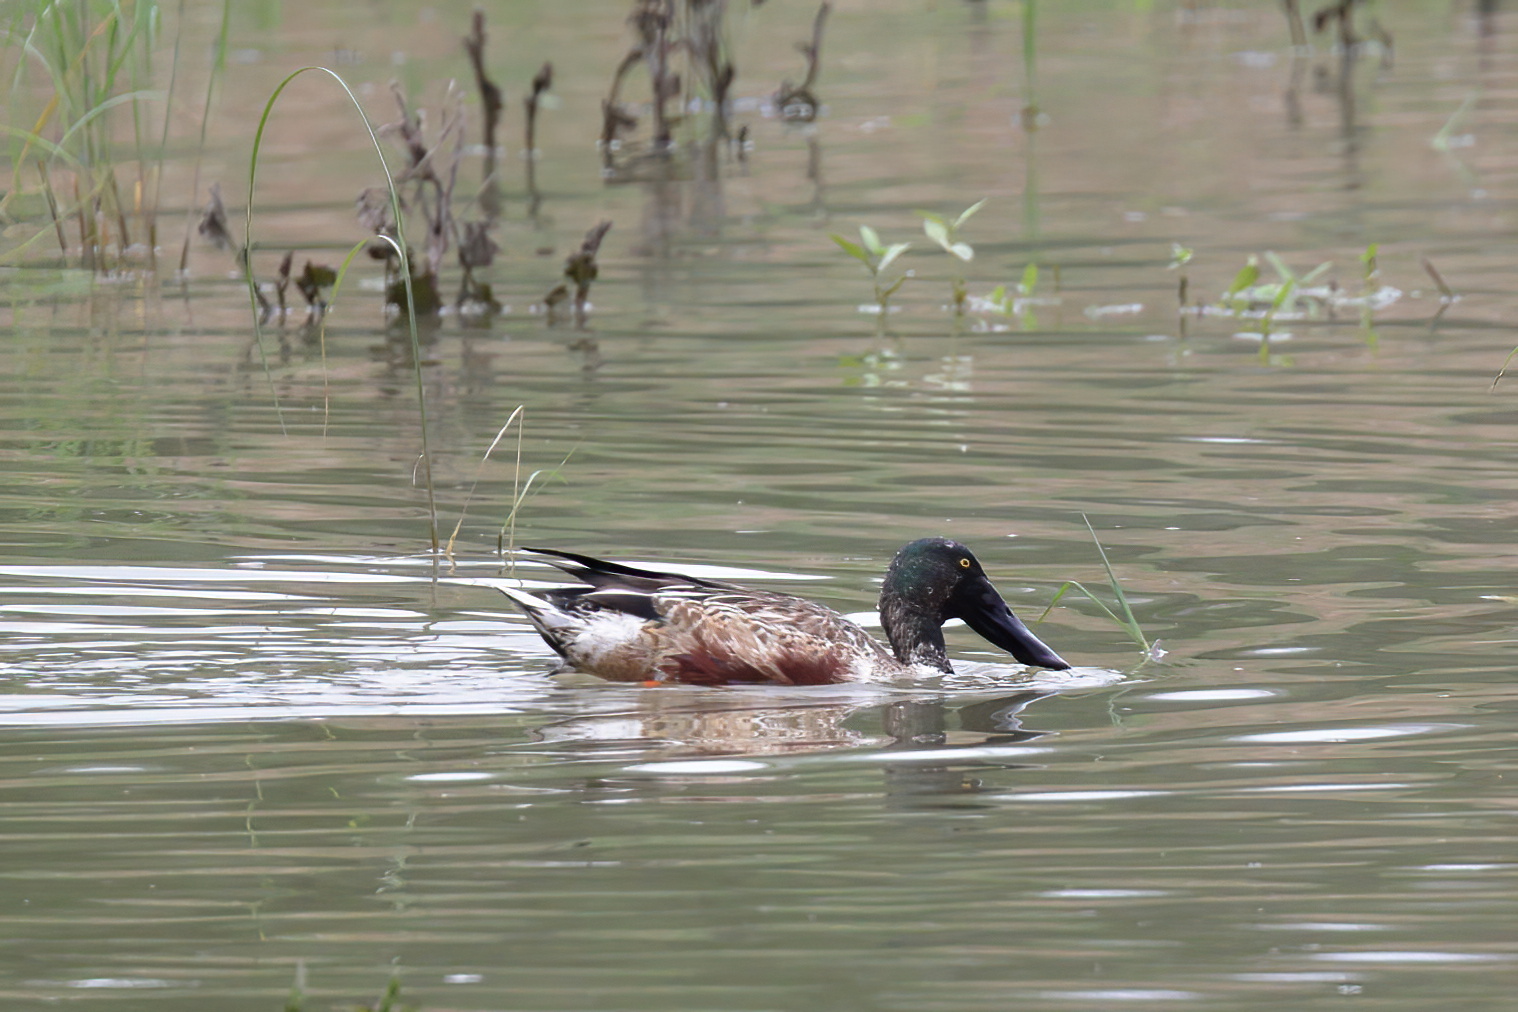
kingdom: Animalia
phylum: Chordata
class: Aves
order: Anseriformes
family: Anatidae
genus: Spatula
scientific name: Spatula clypeata
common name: Northern shoveler
